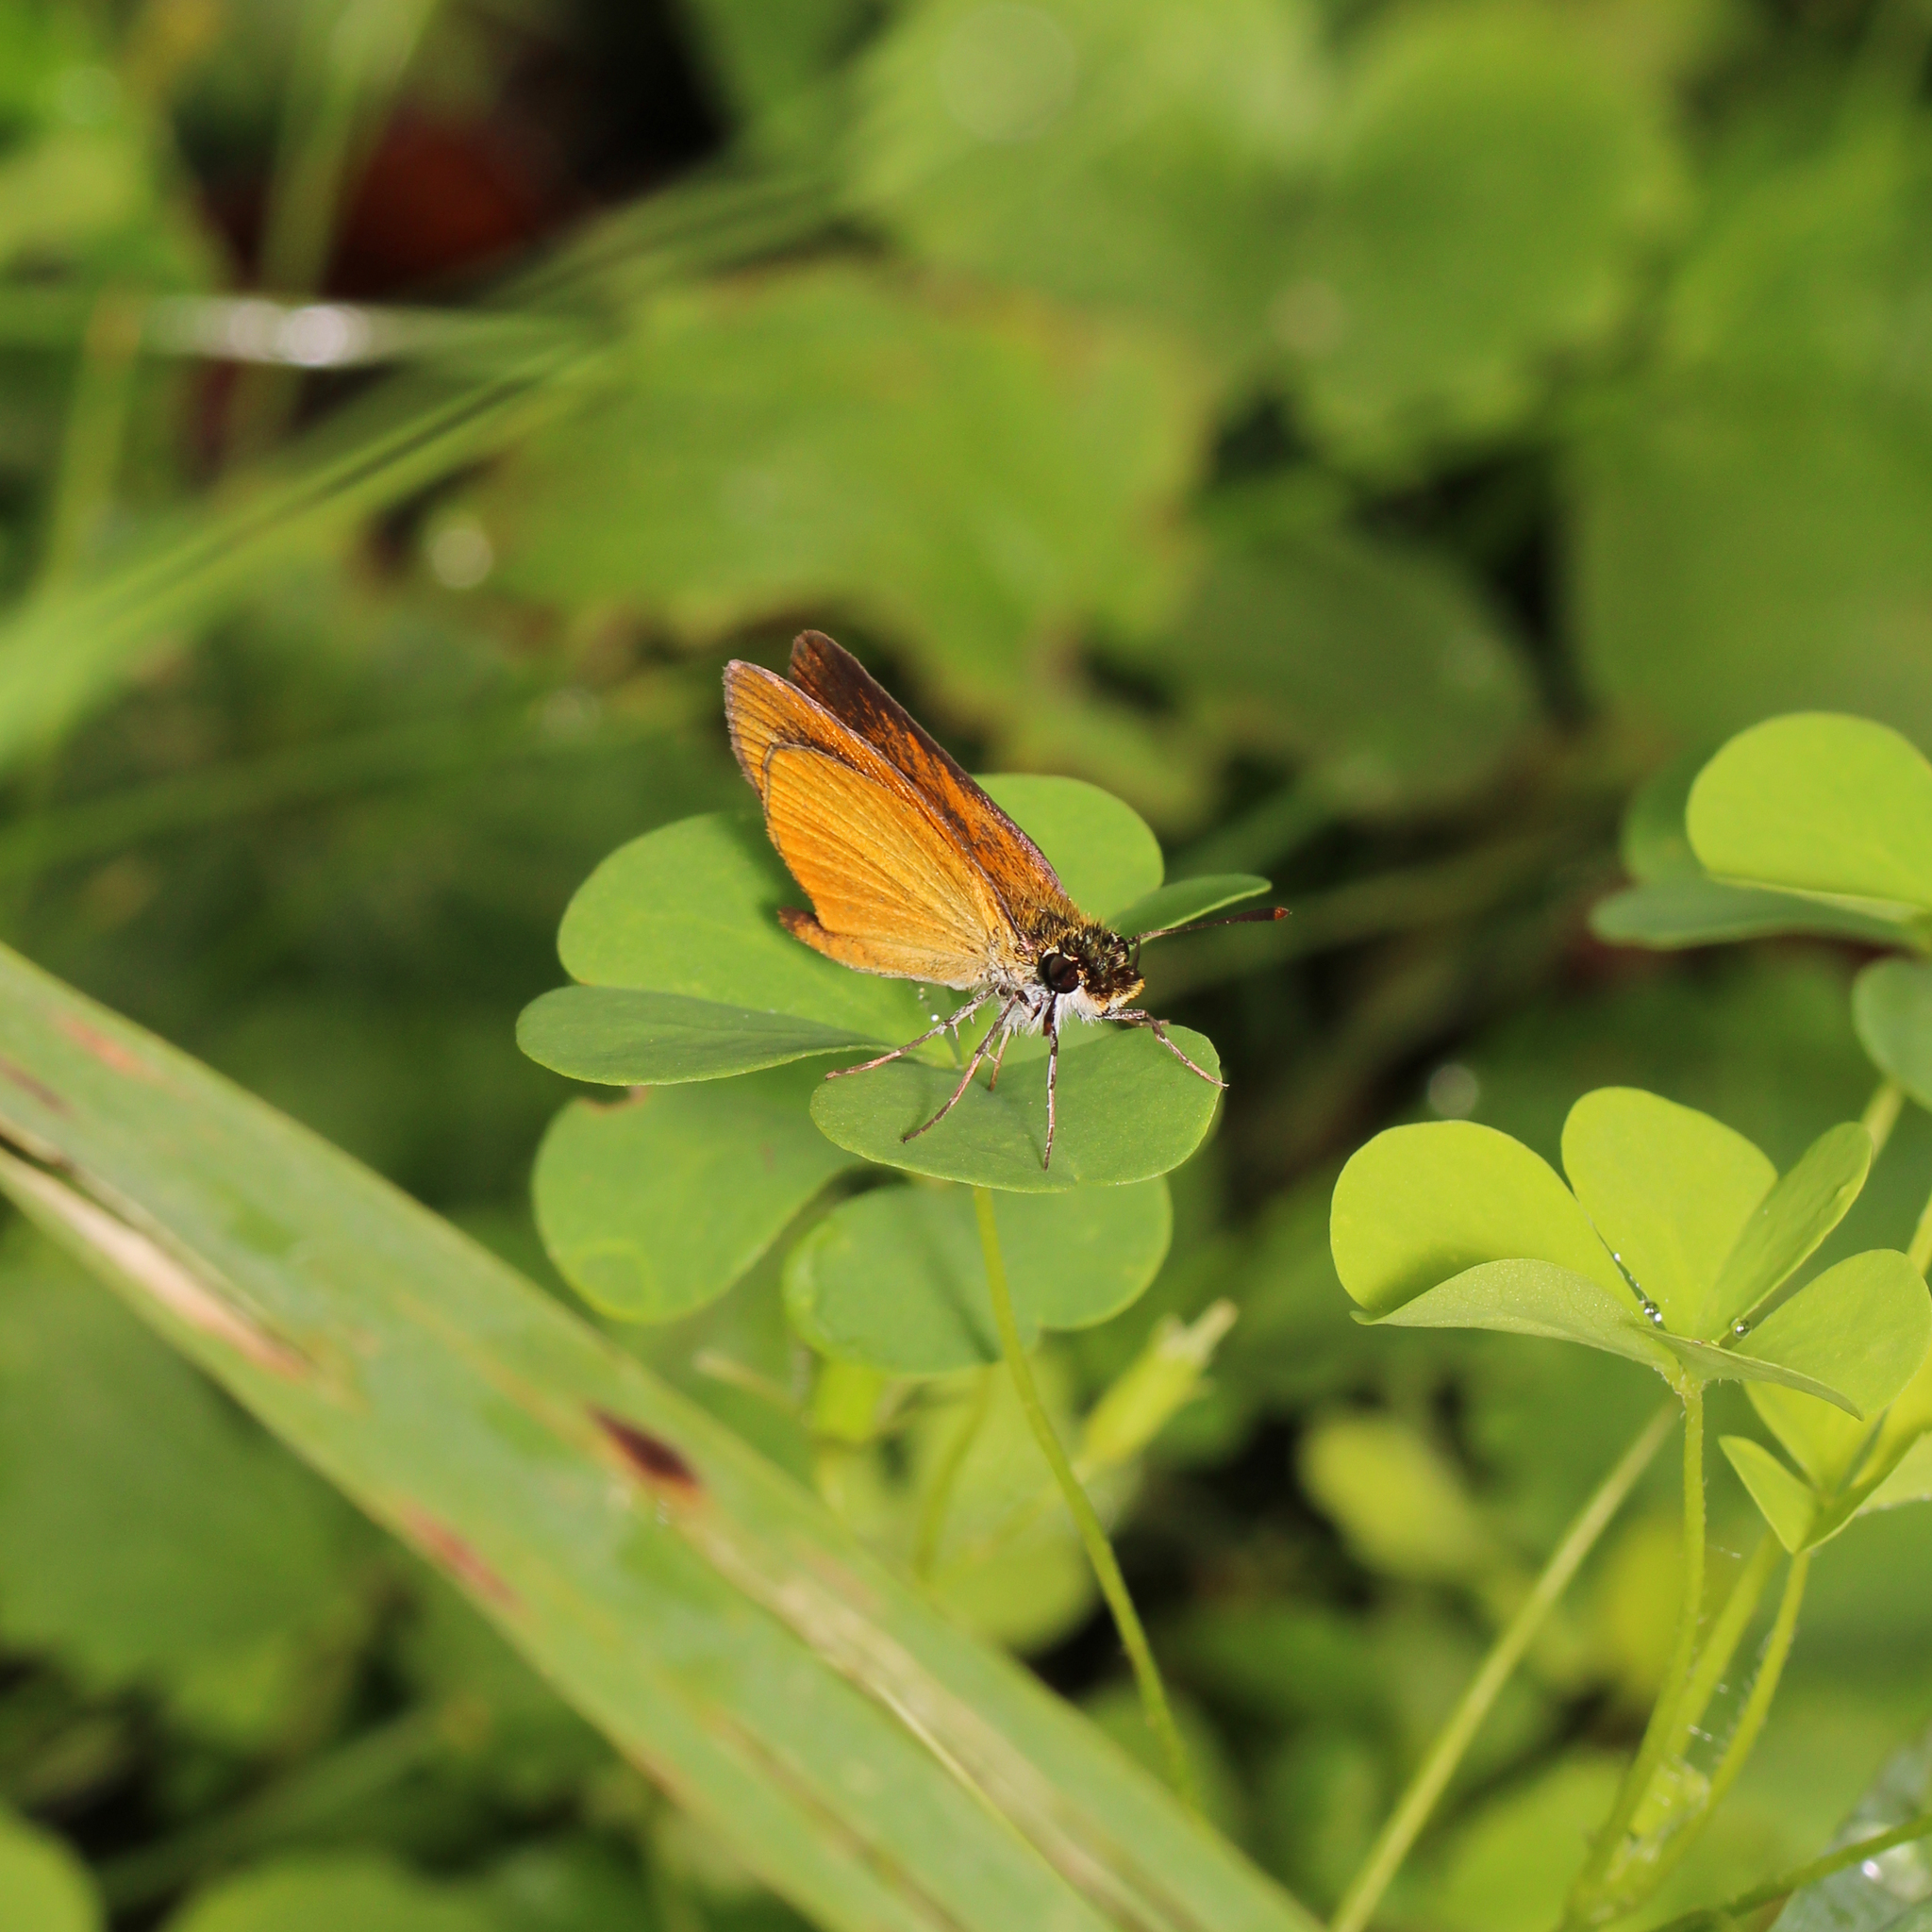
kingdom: Animalia
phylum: Arthropoda
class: Insecta
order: Lepidoptera
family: Hesperiidae
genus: Ancyloxypha
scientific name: Ancyloxypha numitor
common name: Least skipper
